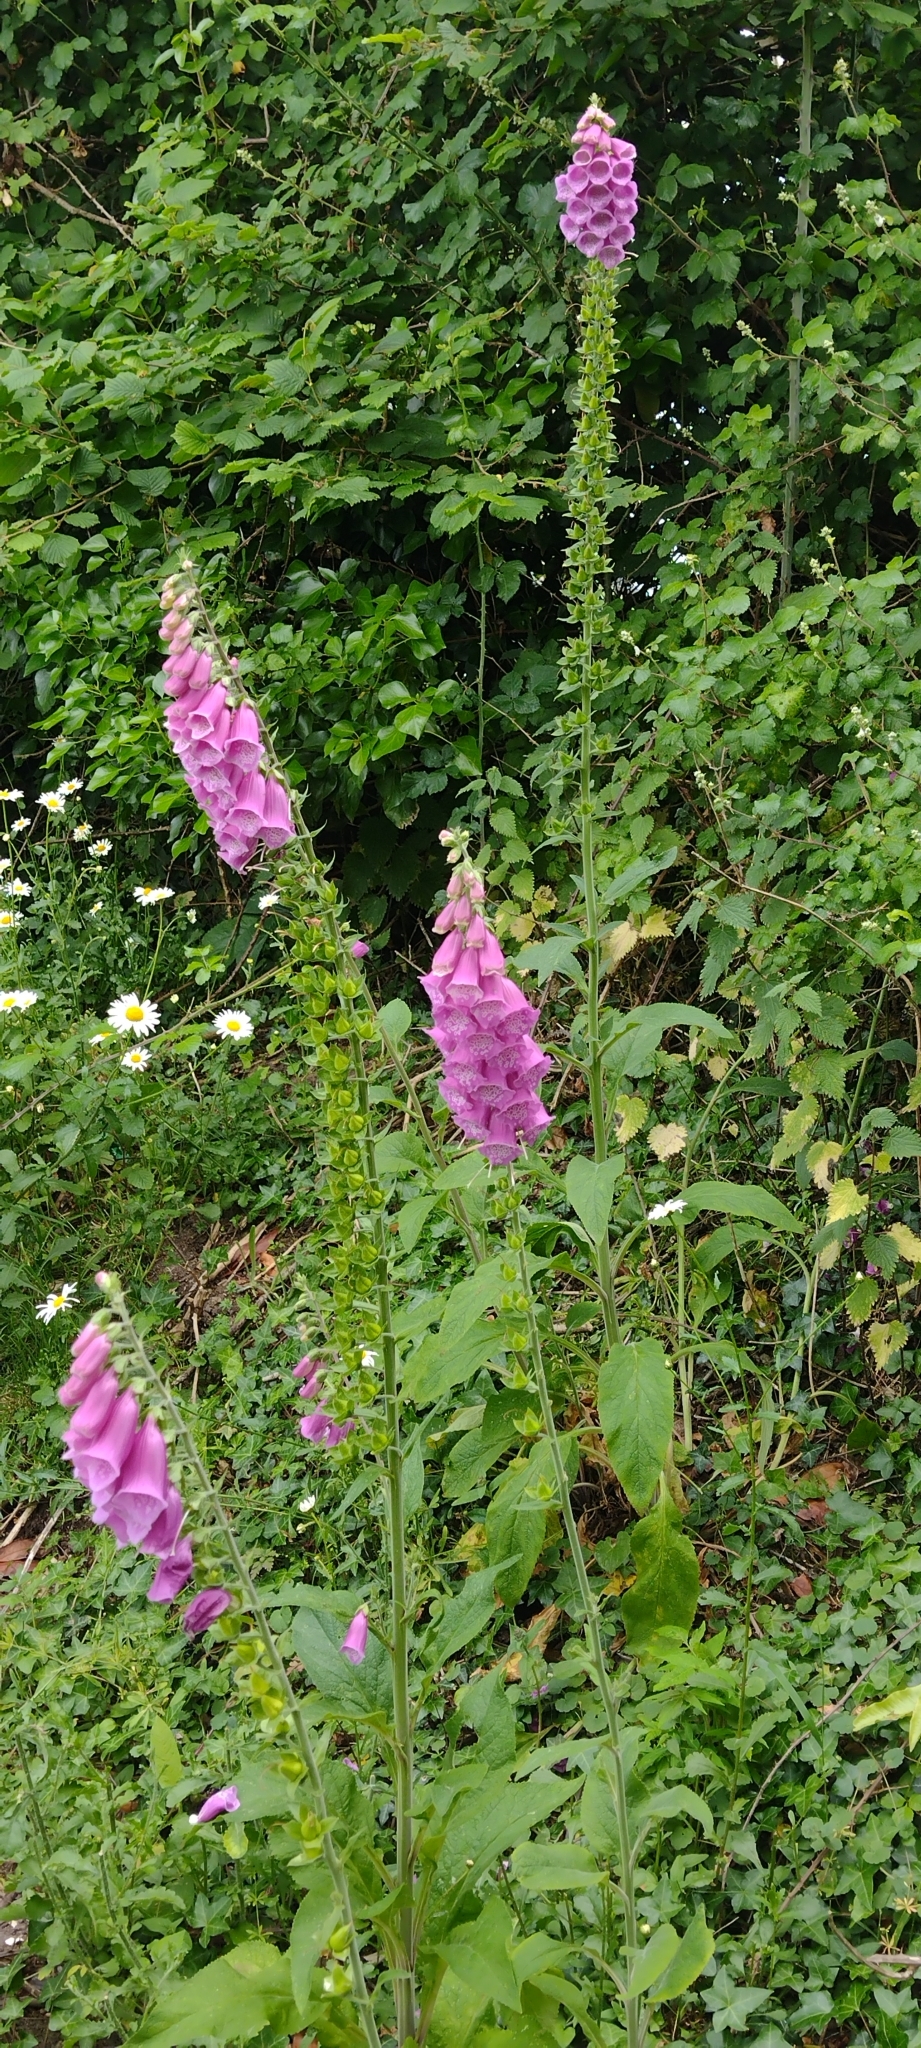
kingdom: Plantae
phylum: Tracheophyta
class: Magnoliopsida
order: Lamiales
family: Plantaginaceae
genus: Digitalis
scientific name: Digitalis purpurea
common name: Foxglove
